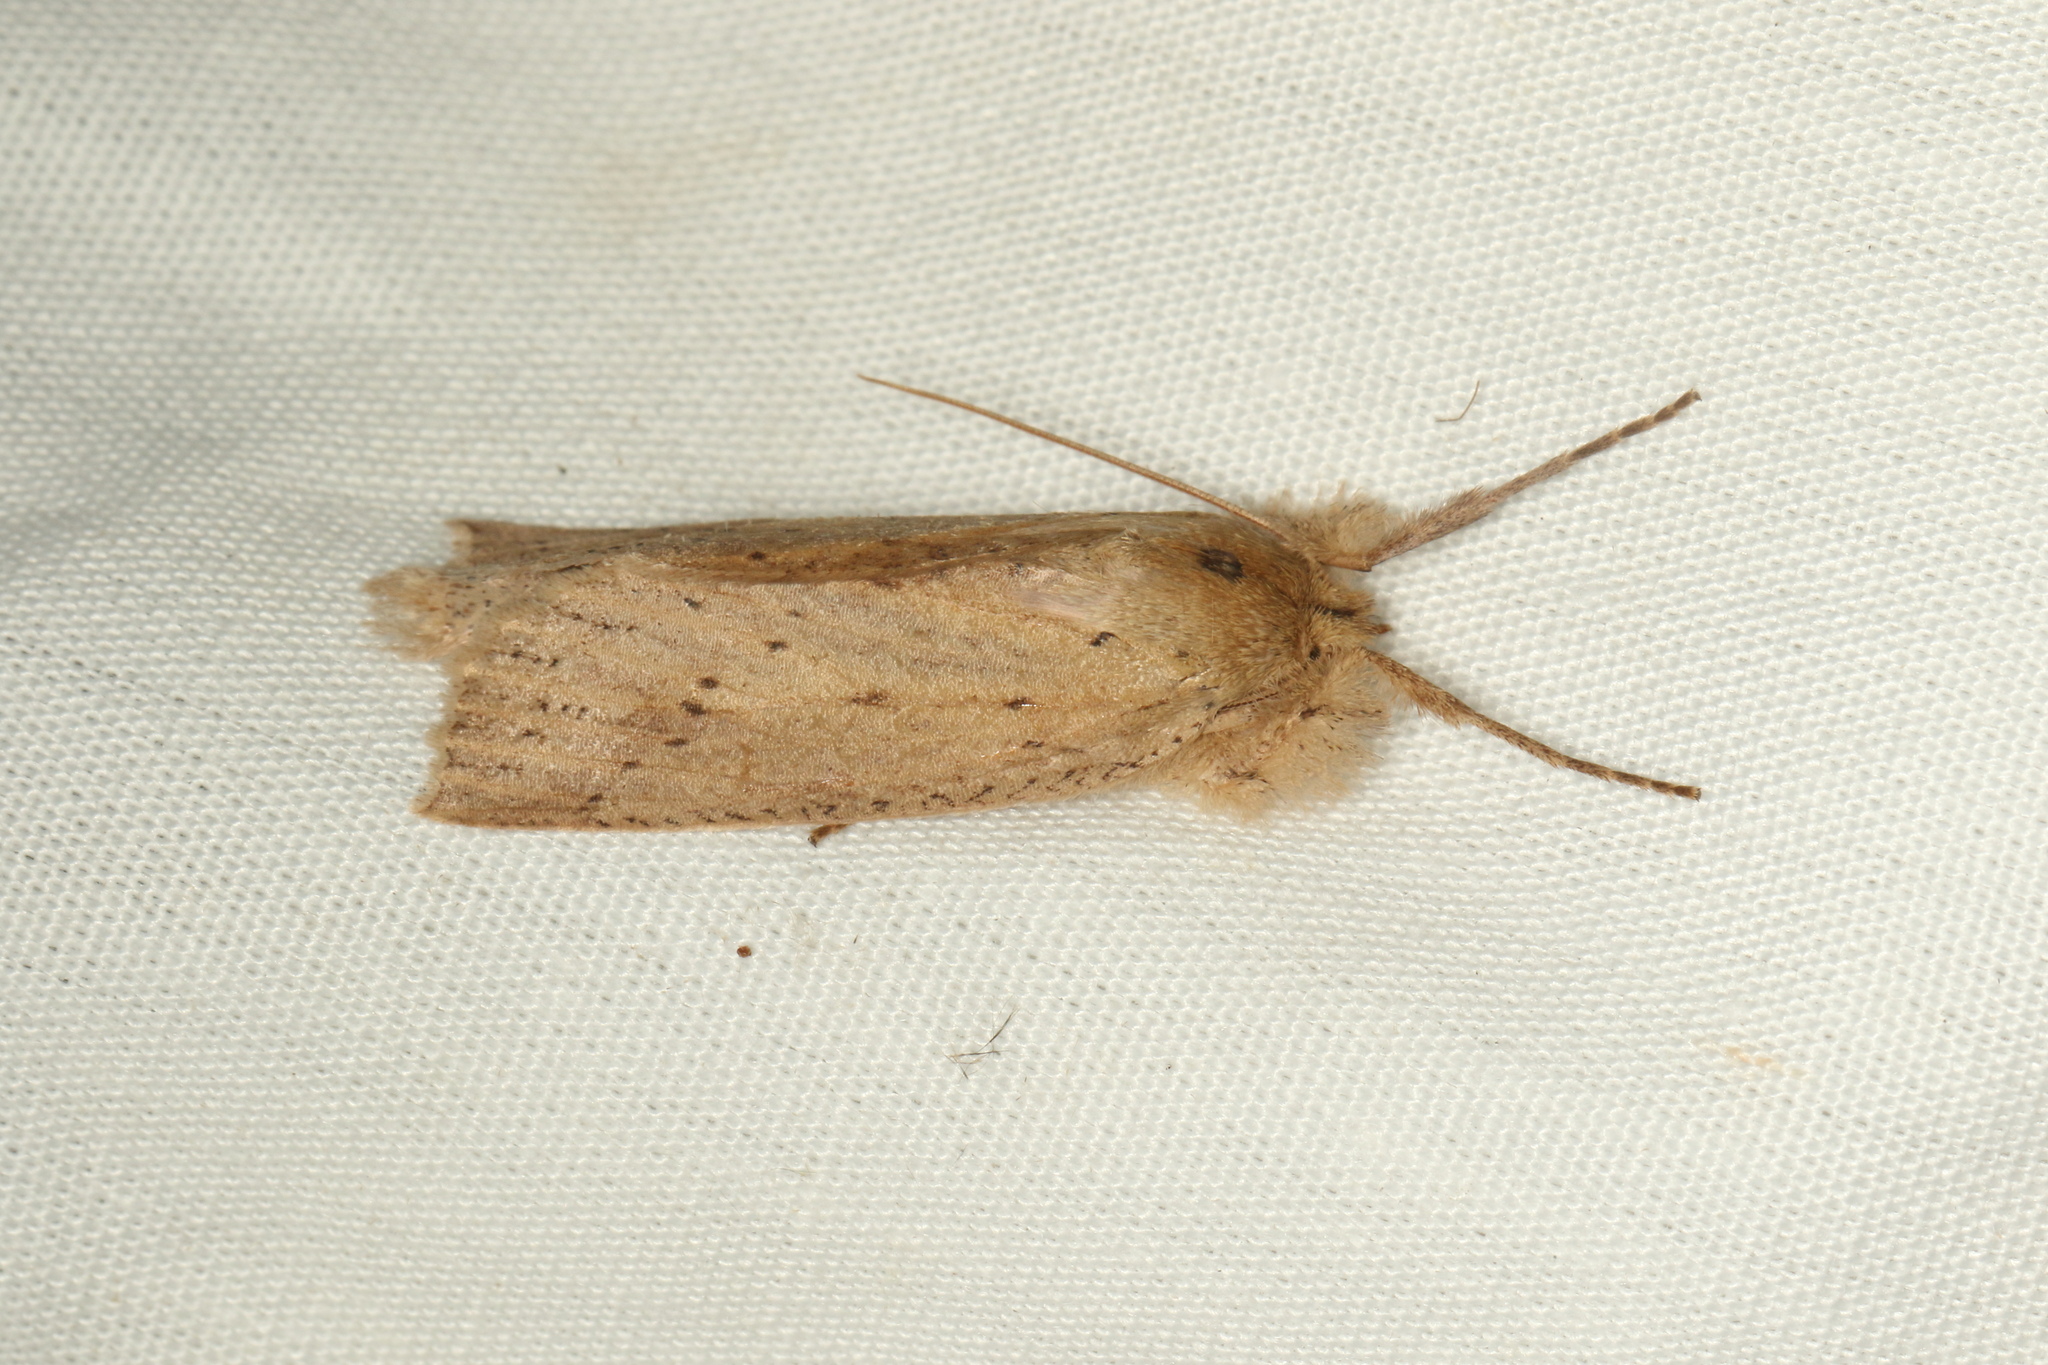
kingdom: Animalia
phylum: Arthropoda
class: Insecta
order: Lepidoptera
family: Geometridae
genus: Declana
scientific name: Declana leptomera
